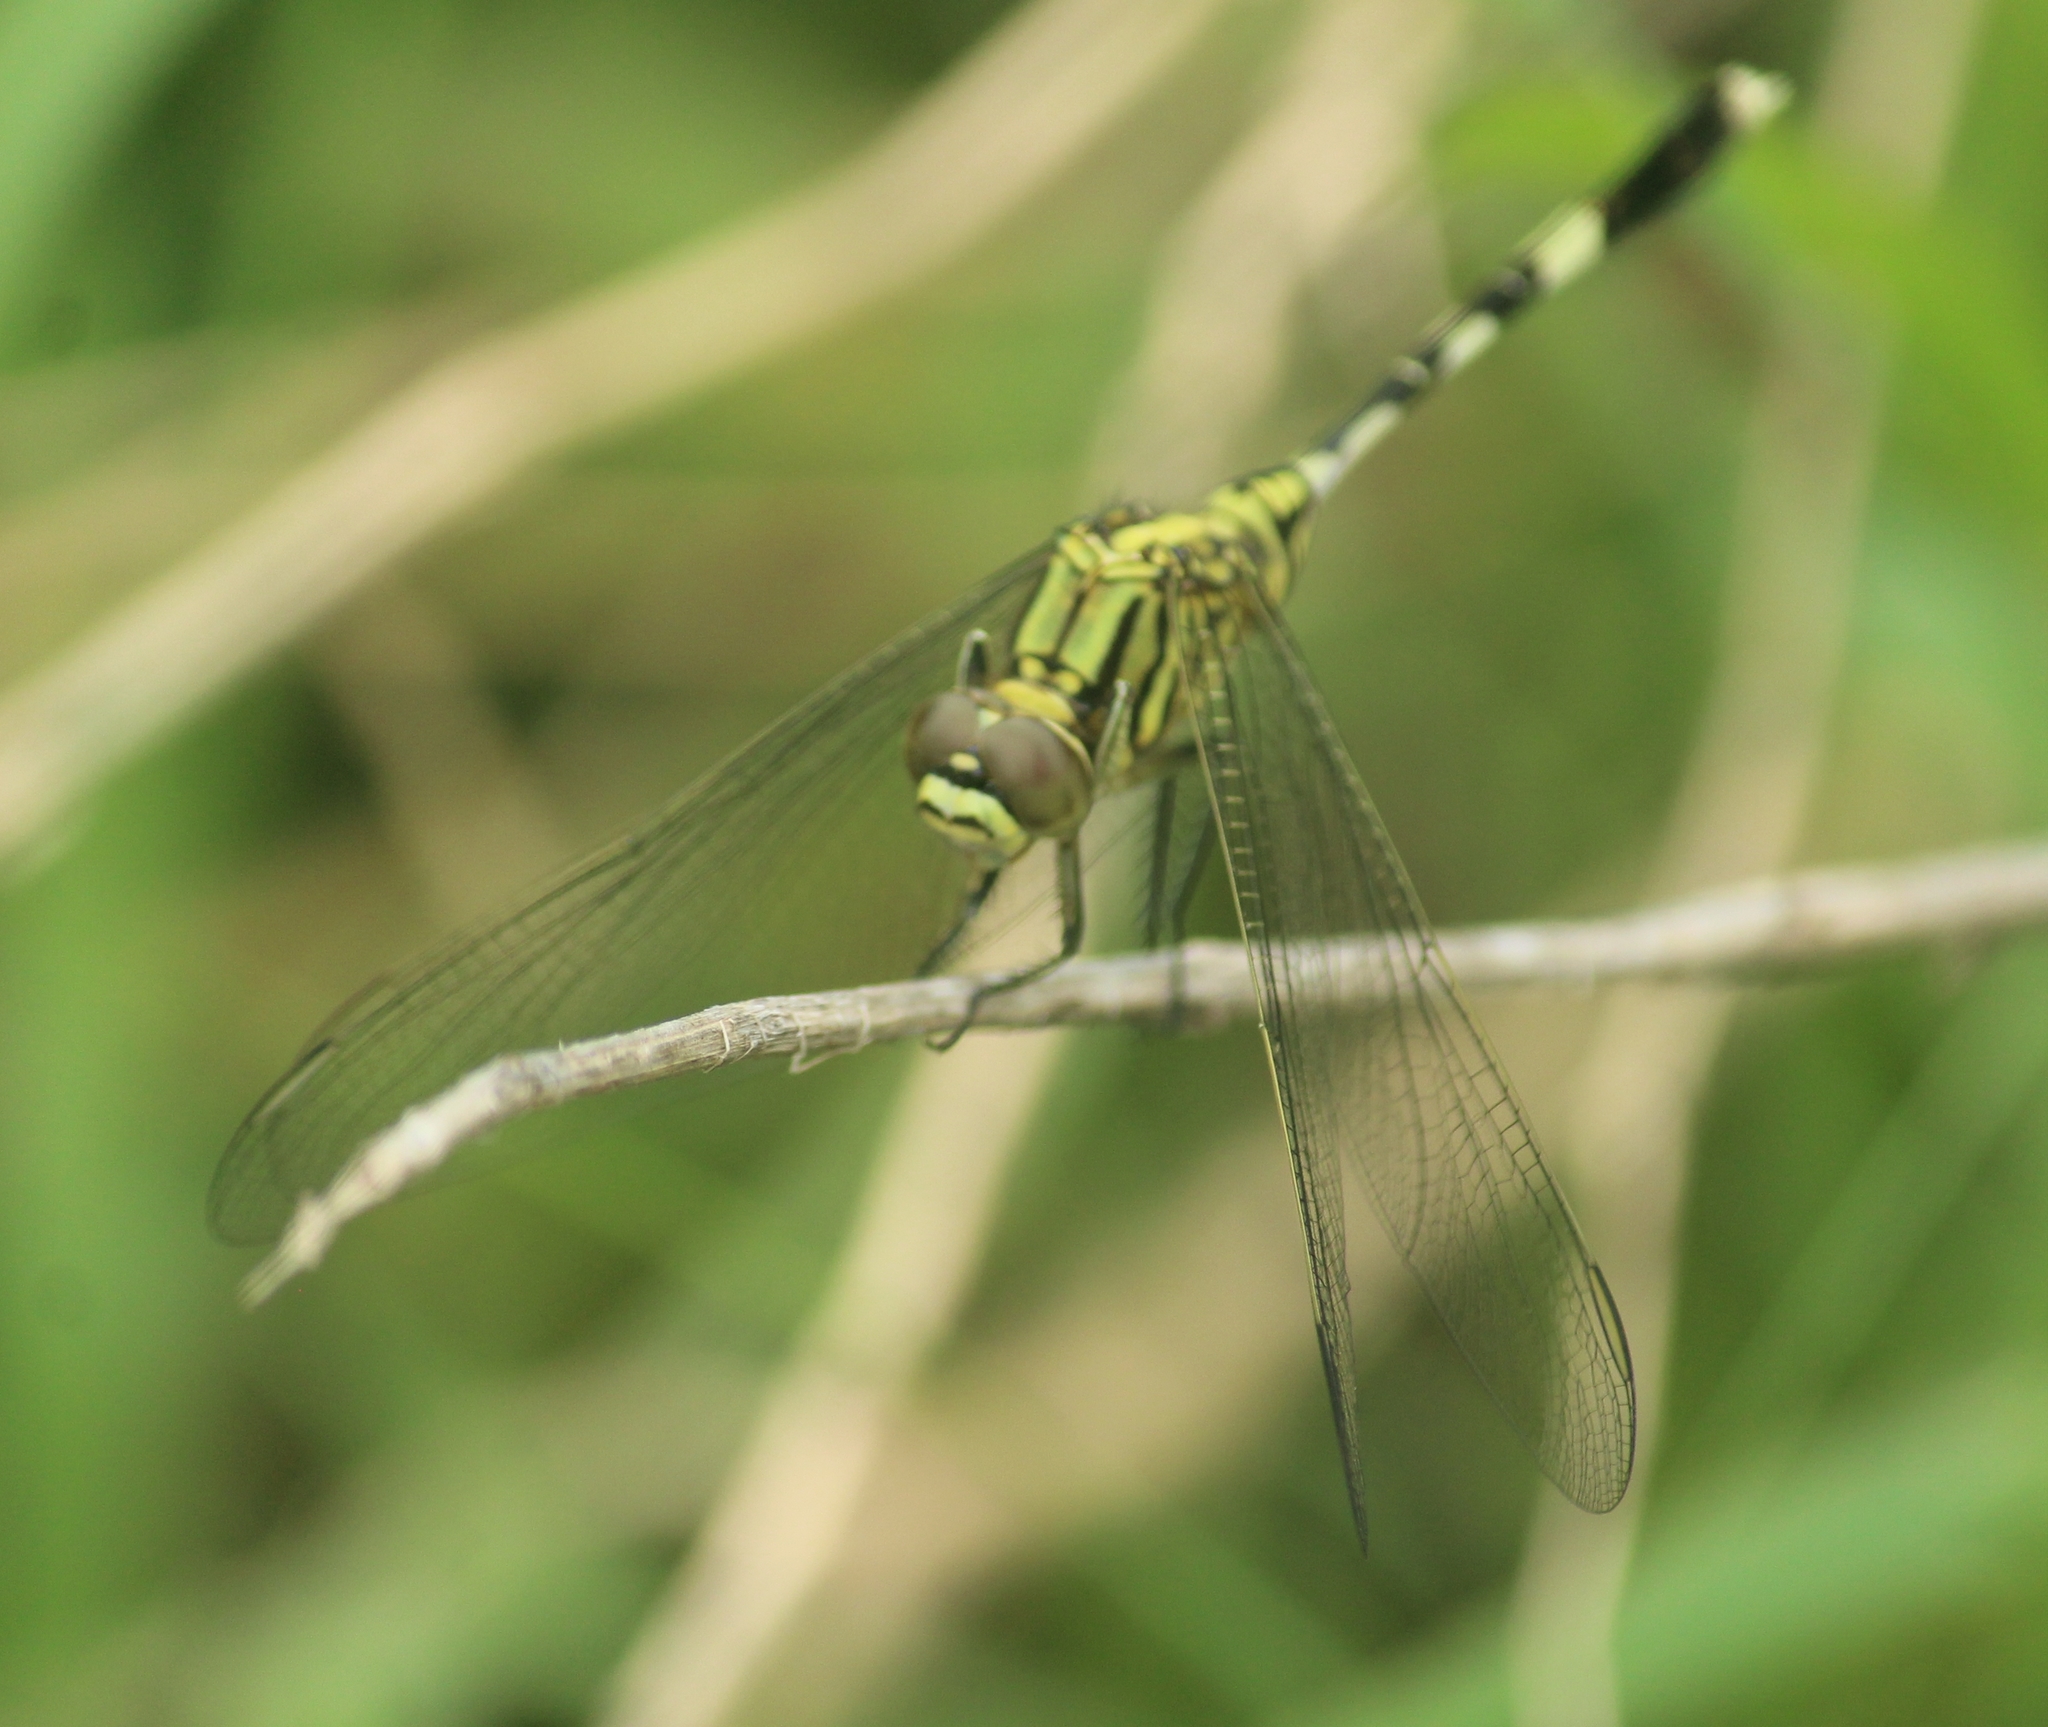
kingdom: Animalia
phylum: Arthropoda
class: Insecta
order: Odonata
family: Libellulidae
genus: Orthetrum
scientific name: Orthetrum sabina
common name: Slender skimmer
